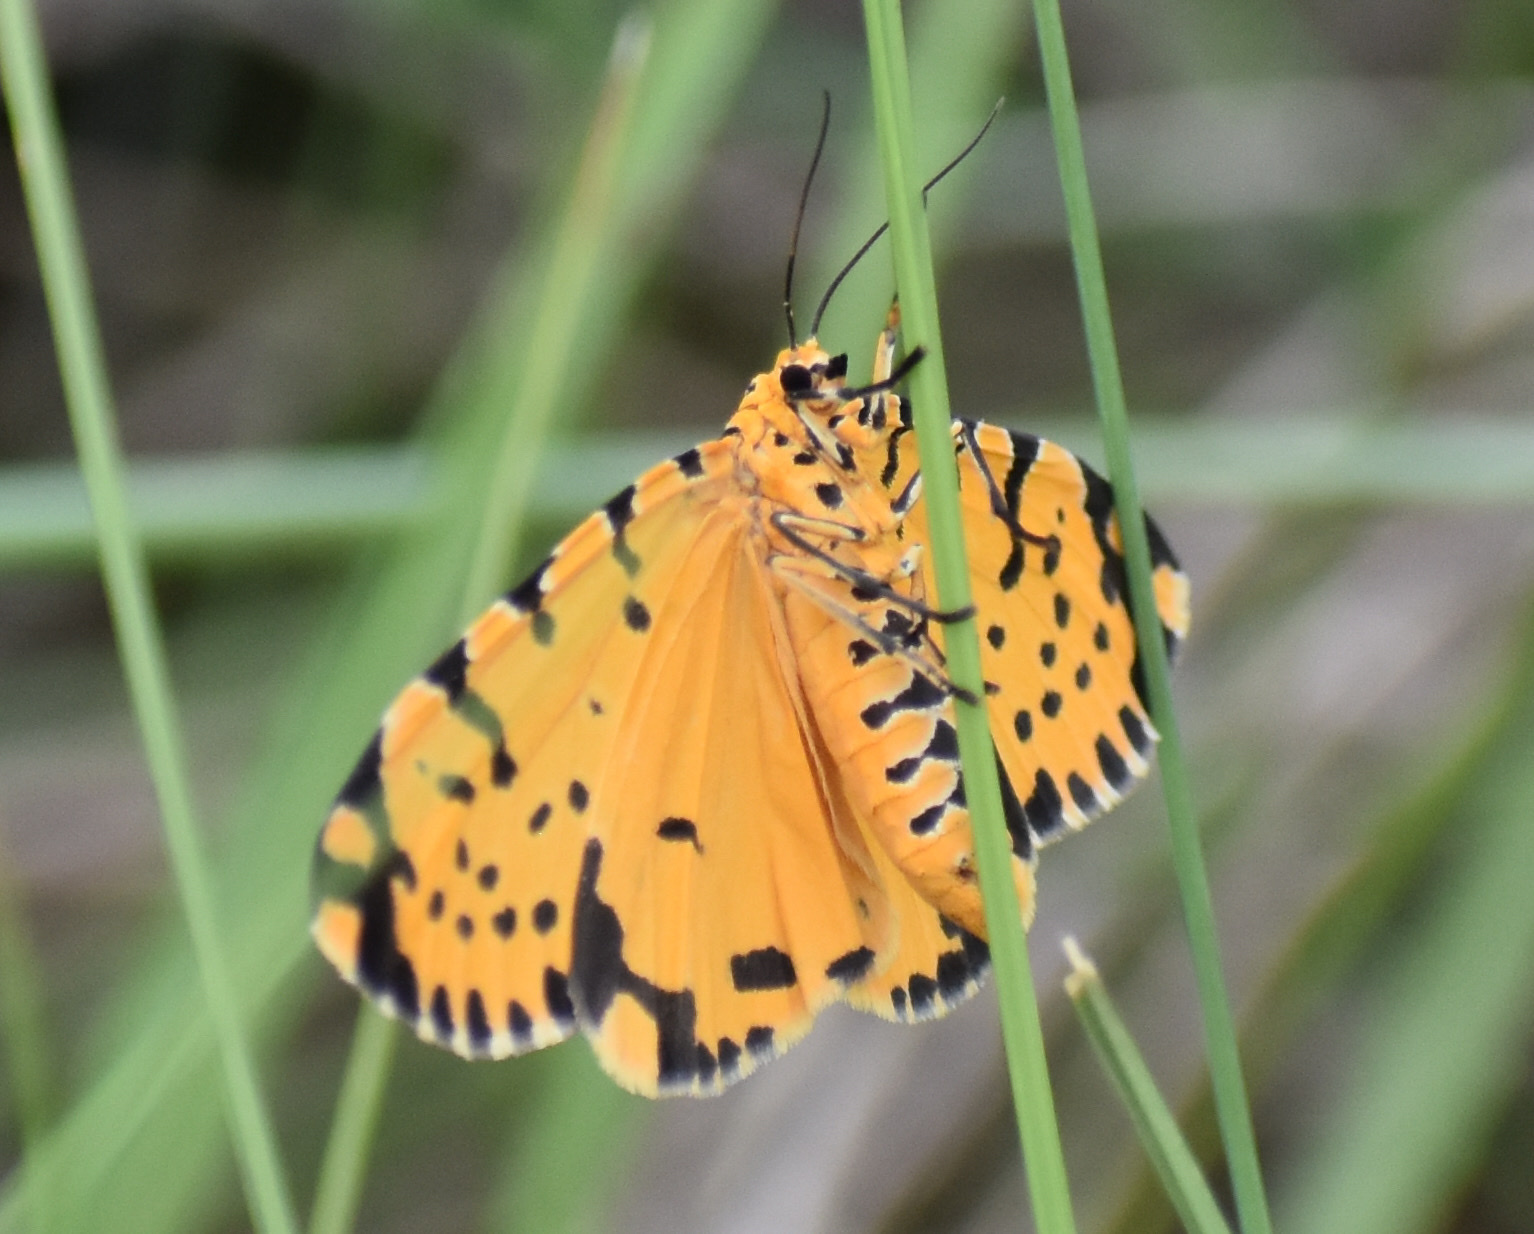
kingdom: Animalia
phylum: Arthropoda
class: Insecta
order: Lepidoptera
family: Erebidae
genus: Argina
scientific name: Argina Alytarchia amanda
